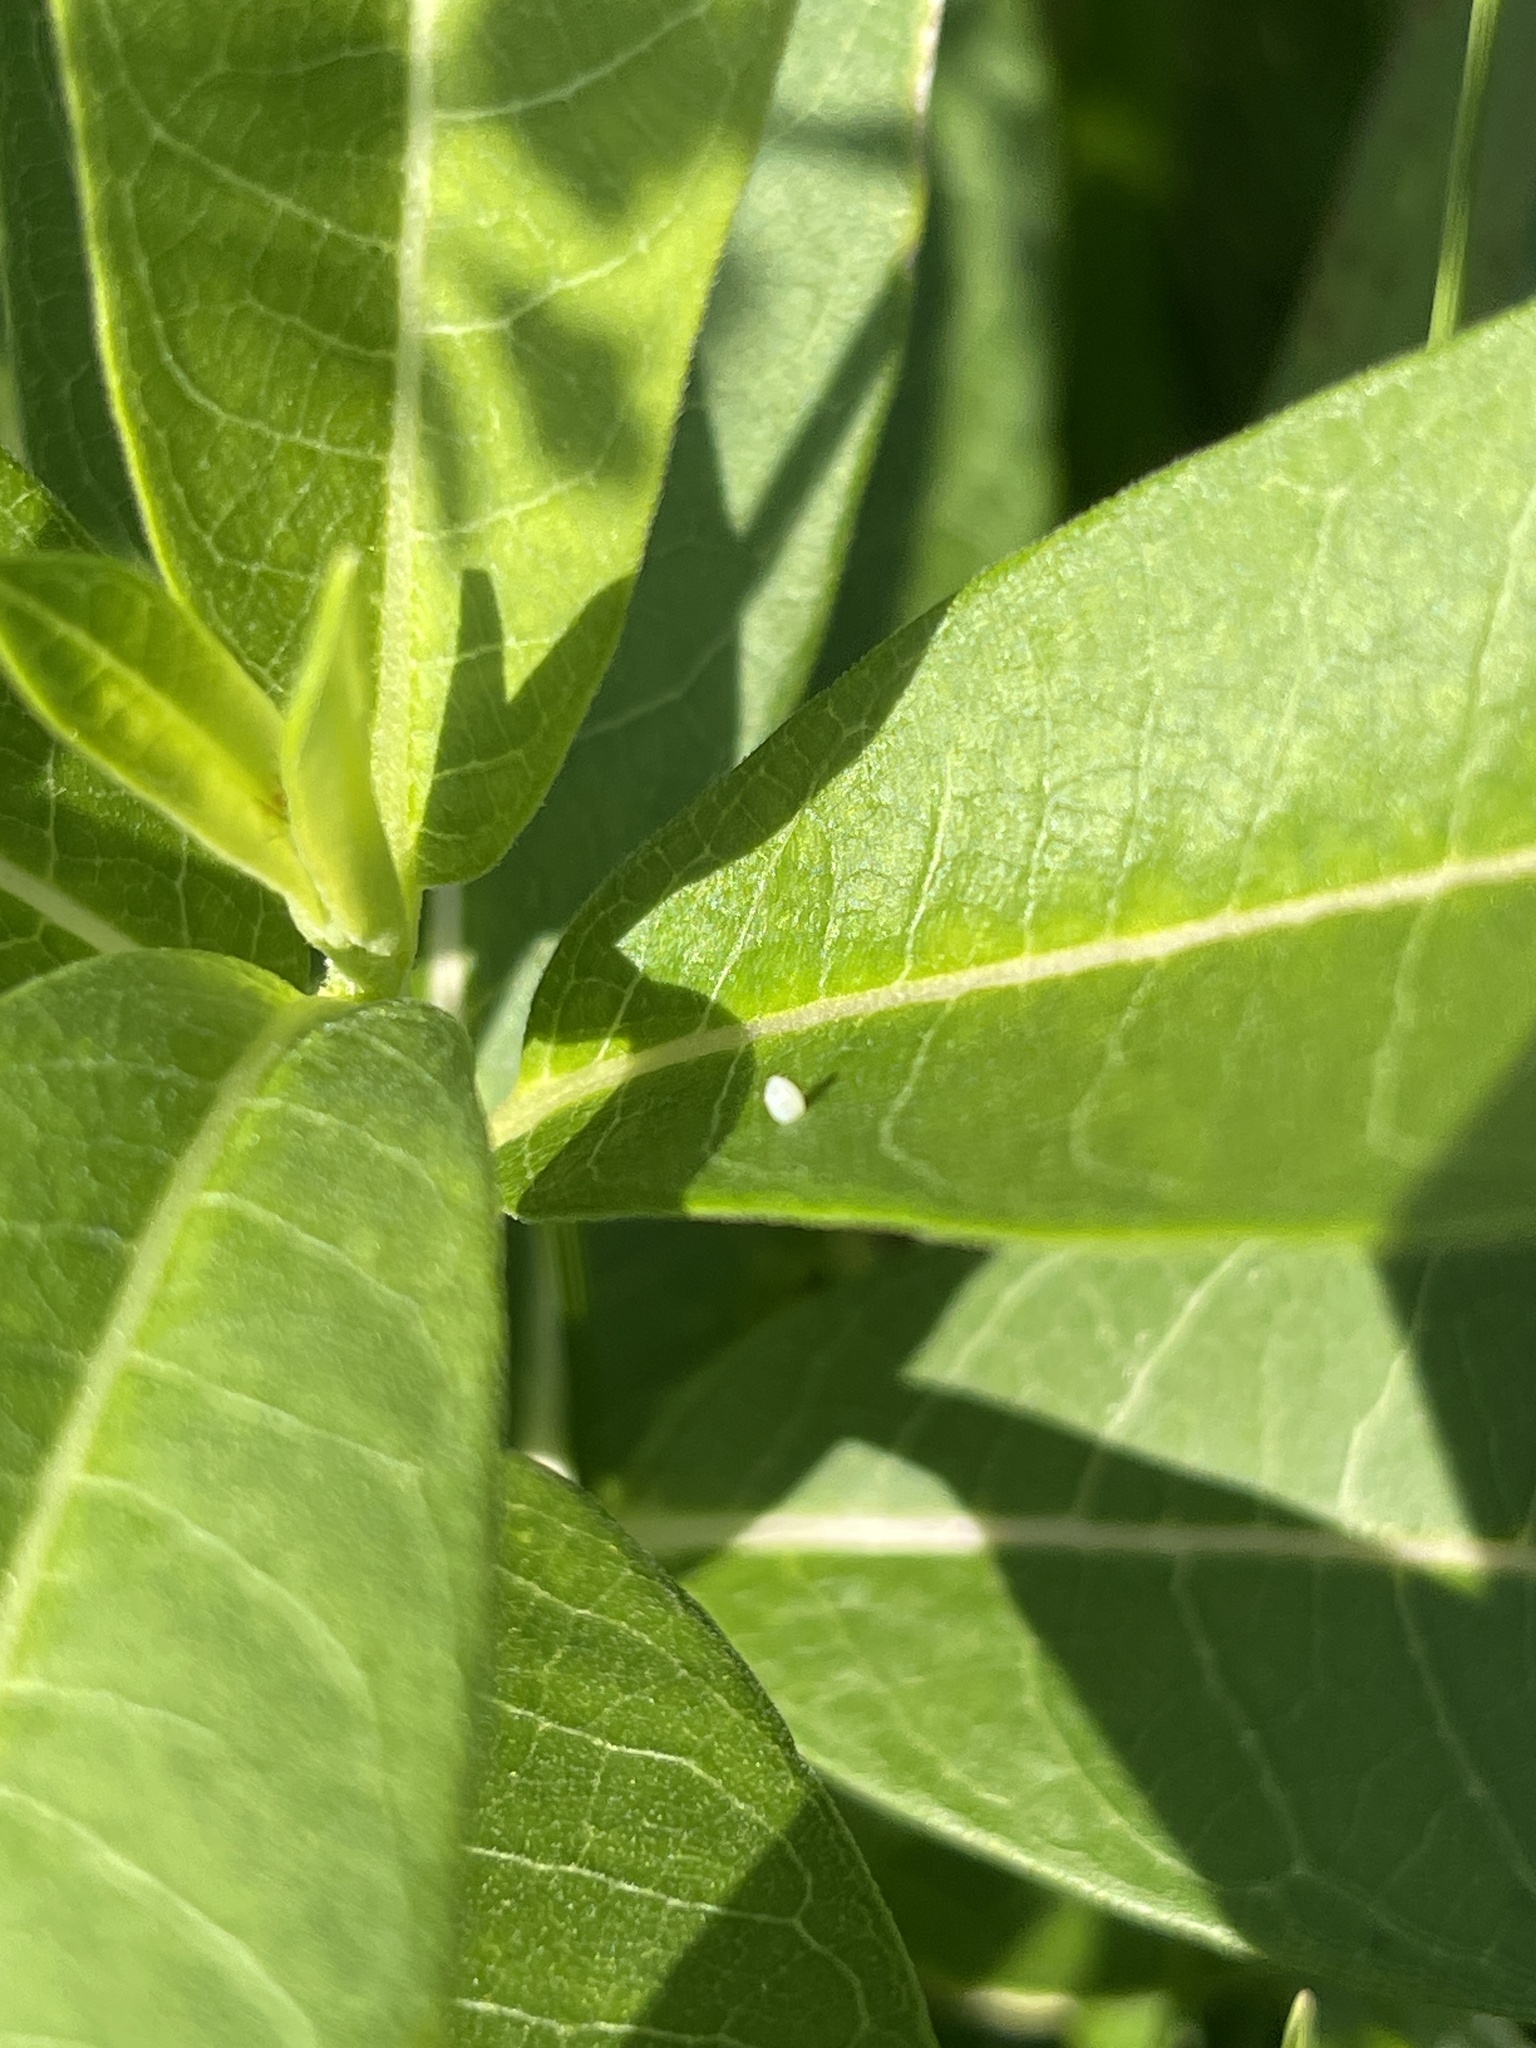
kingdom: Animalia
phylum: Arthropoda
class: Insecta
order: Lepidoptera
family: Nymphalidae
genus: Danaus
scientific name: Danaus plexippus
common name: Monarch
